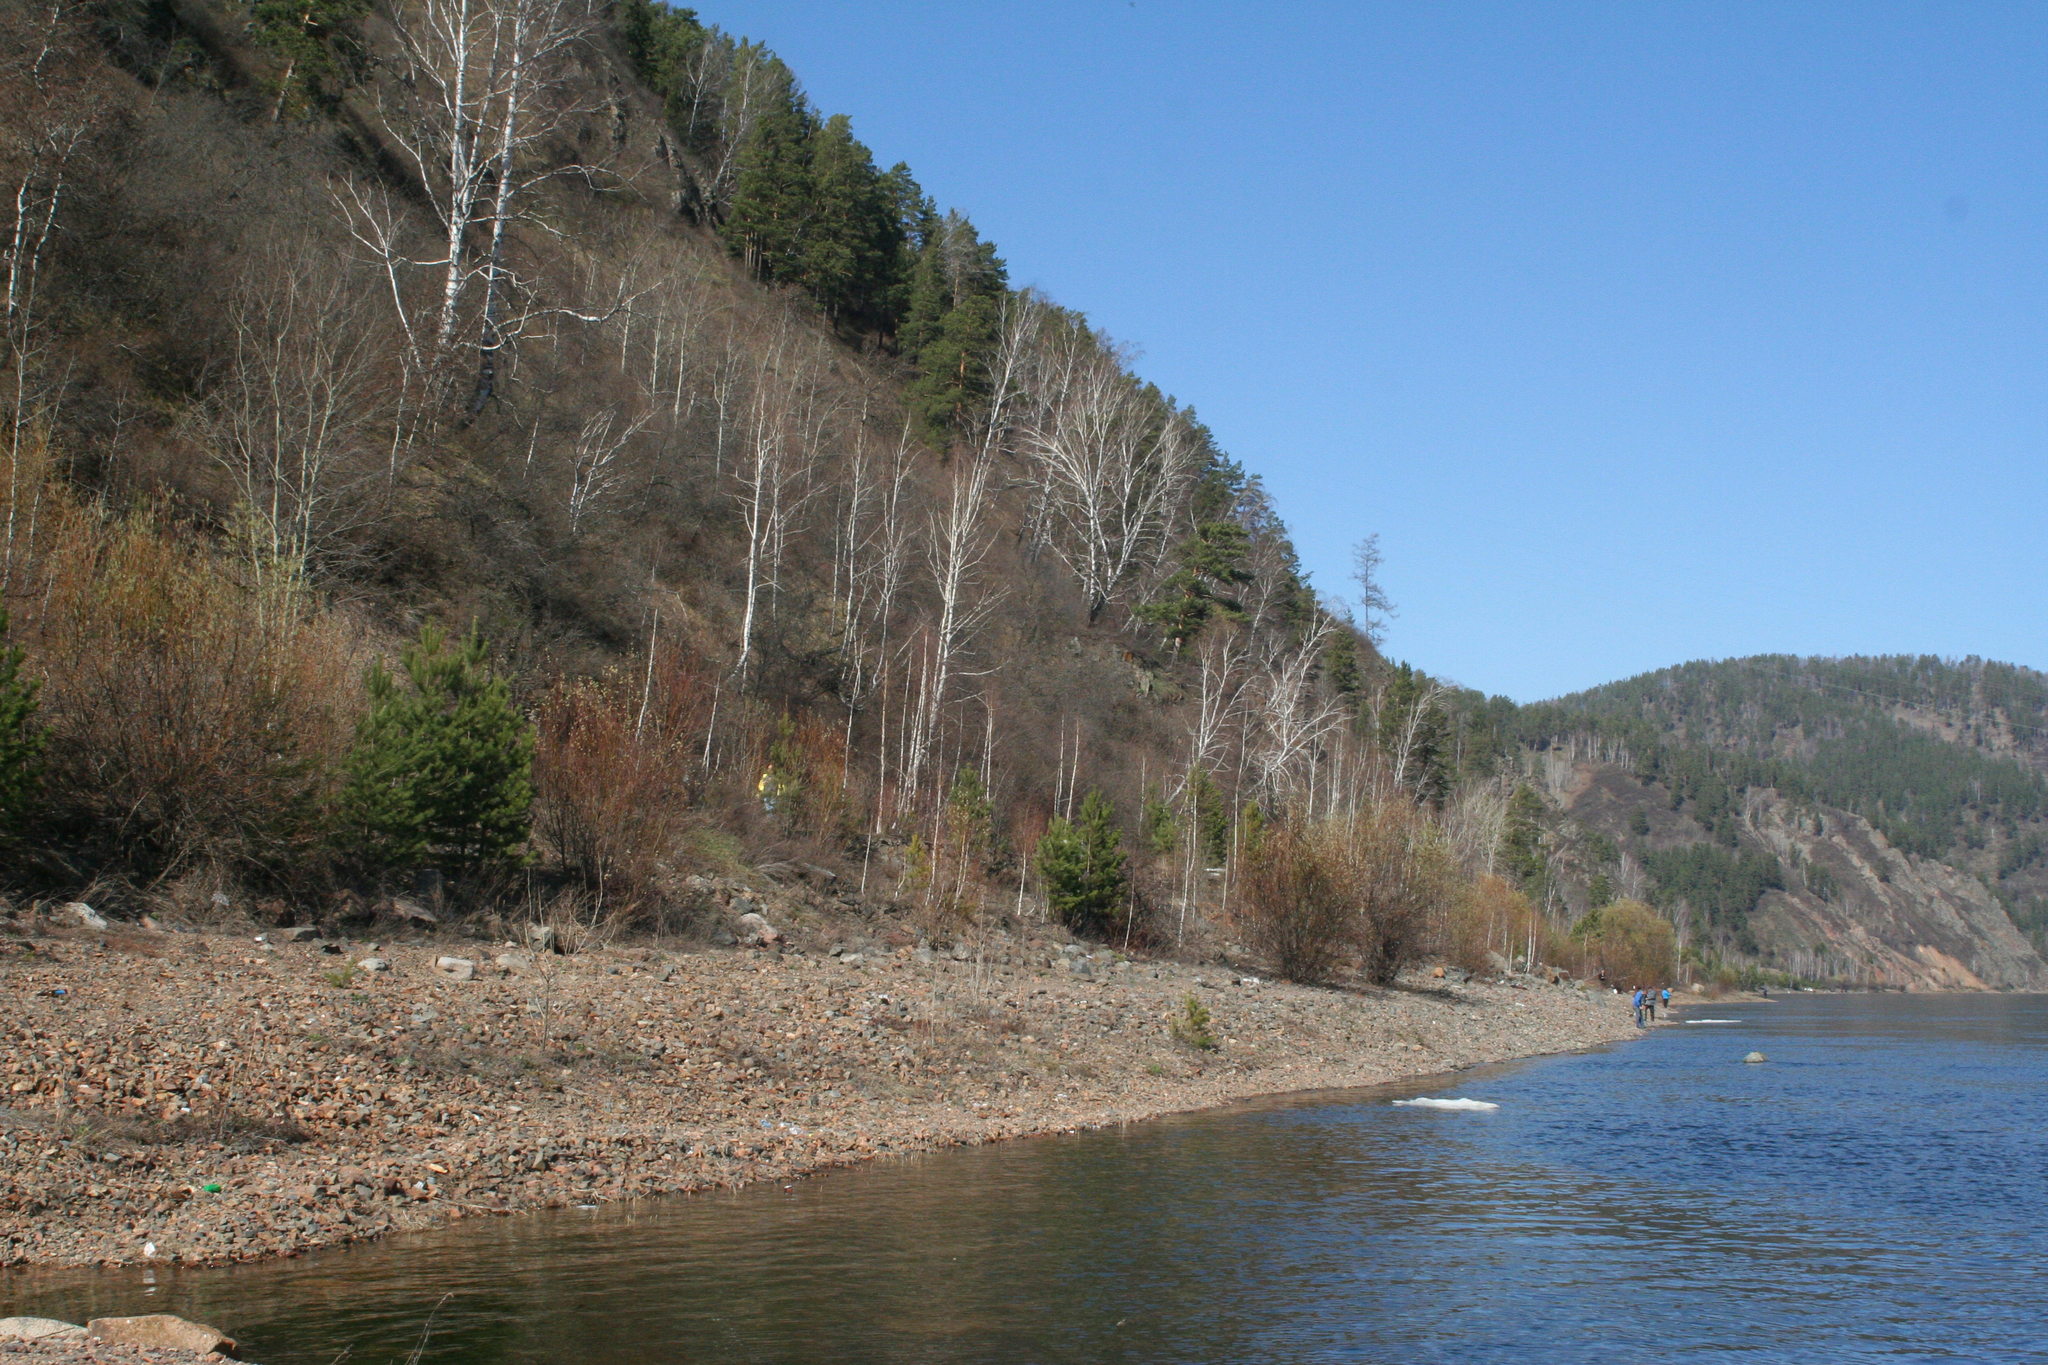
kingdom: Plantae
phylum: Tracheophyta
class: Pinopsida
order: Pinales
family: Pinaceae
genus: Pinus
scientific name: Pinus sylvestris
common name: Scots pine
